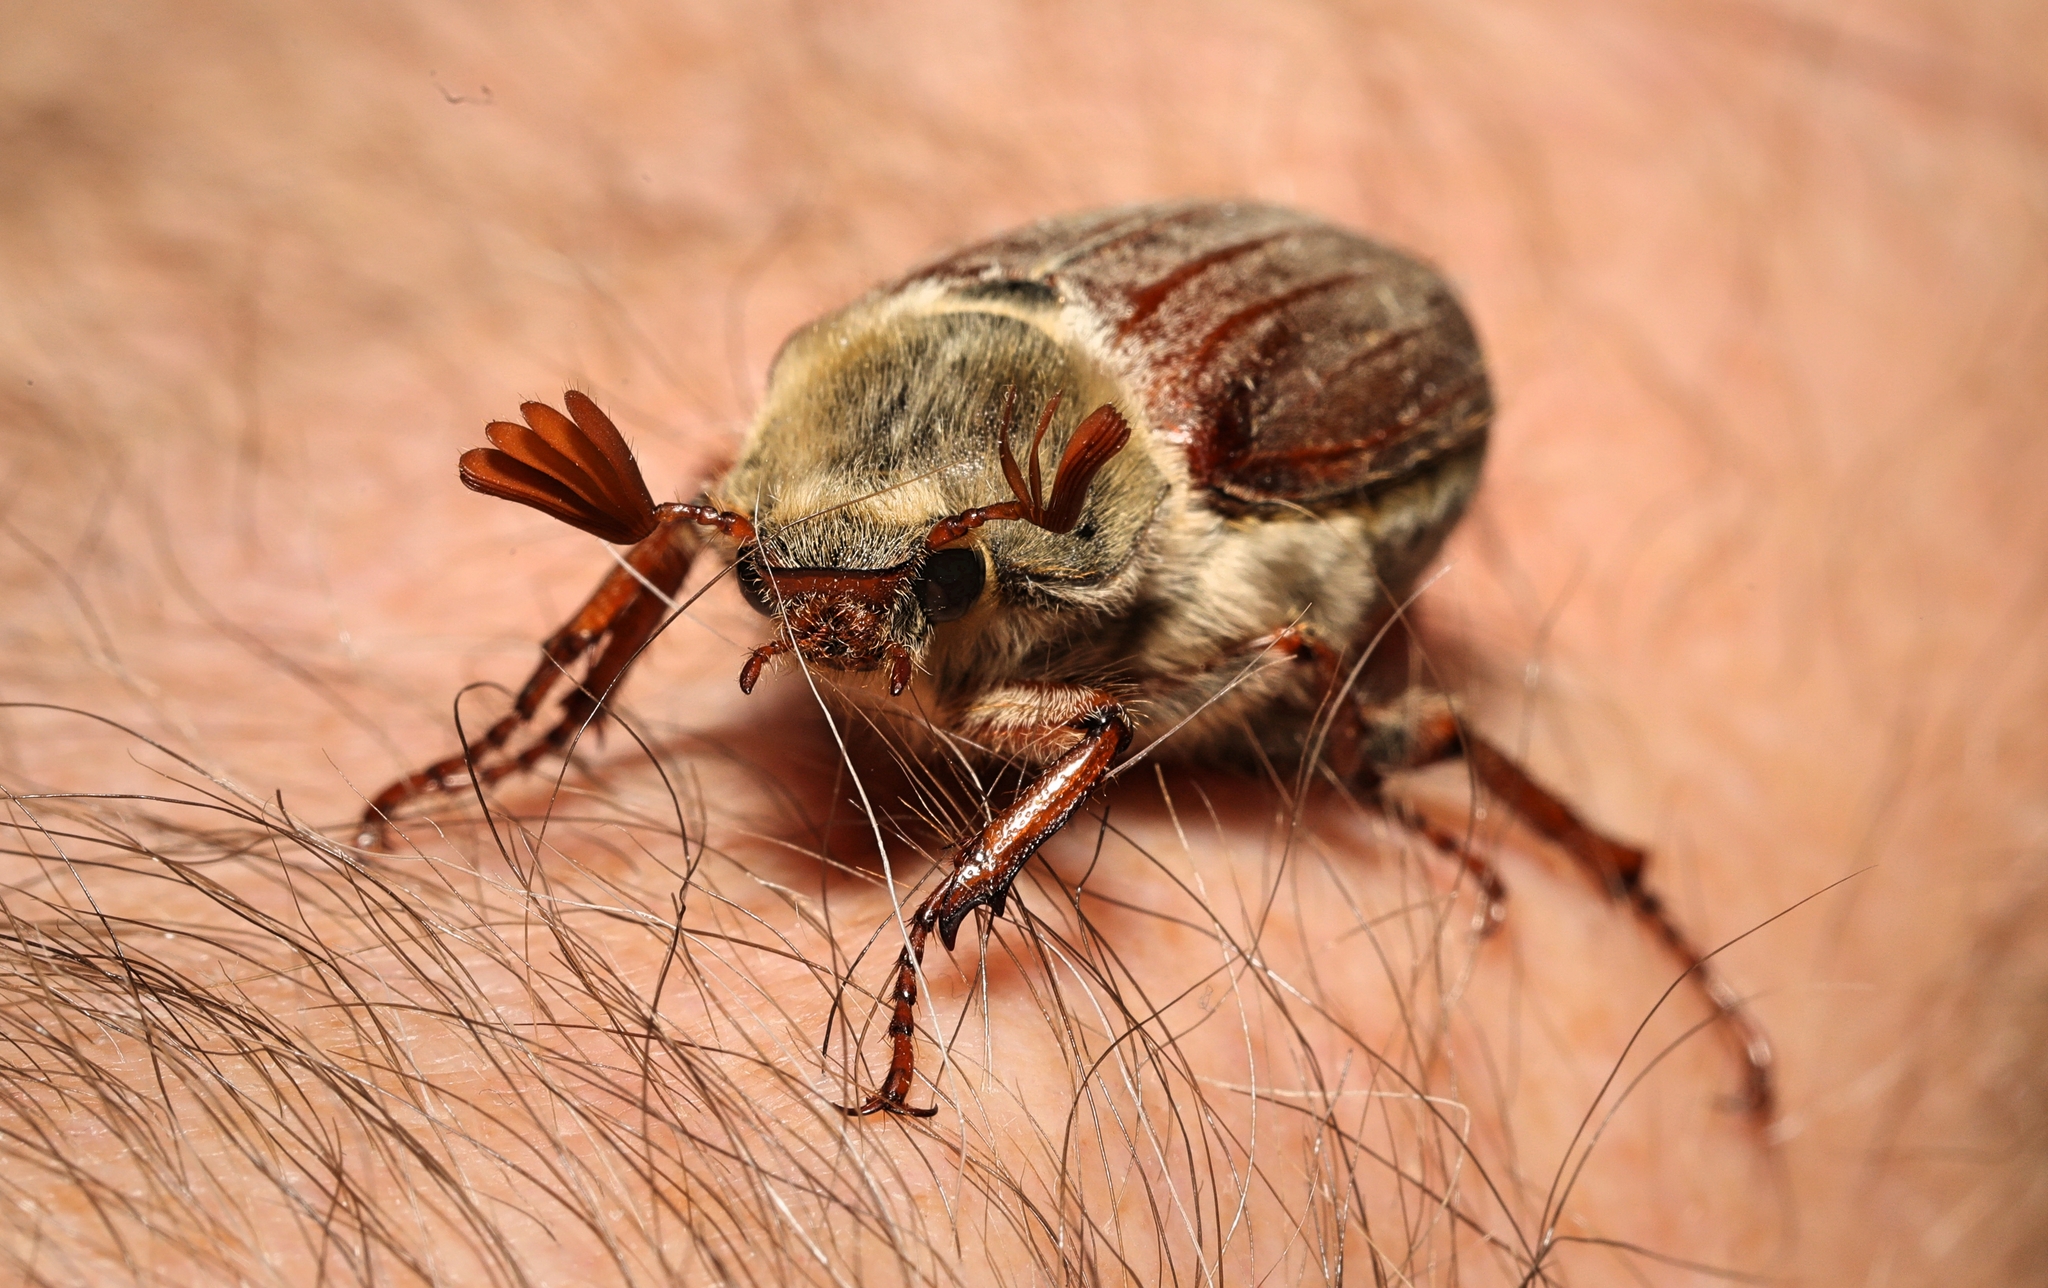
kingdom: Animalia
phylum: Arthropoda
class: Insecta
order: Coleoptera
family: Scarabaeidae
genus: Melolontha
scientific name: Melolontha melolontha
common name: Cockchafer maybeetle
